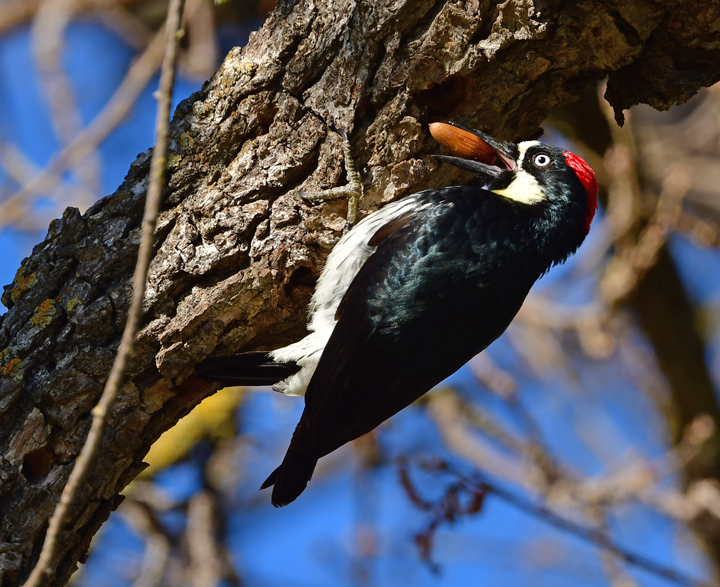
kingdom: Animalia
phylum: Chordata
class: Aves
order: Piciformes
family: Picidae
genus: Melanerpes
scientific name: Melanerpes formicivorus
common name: Acorn woodpecker
